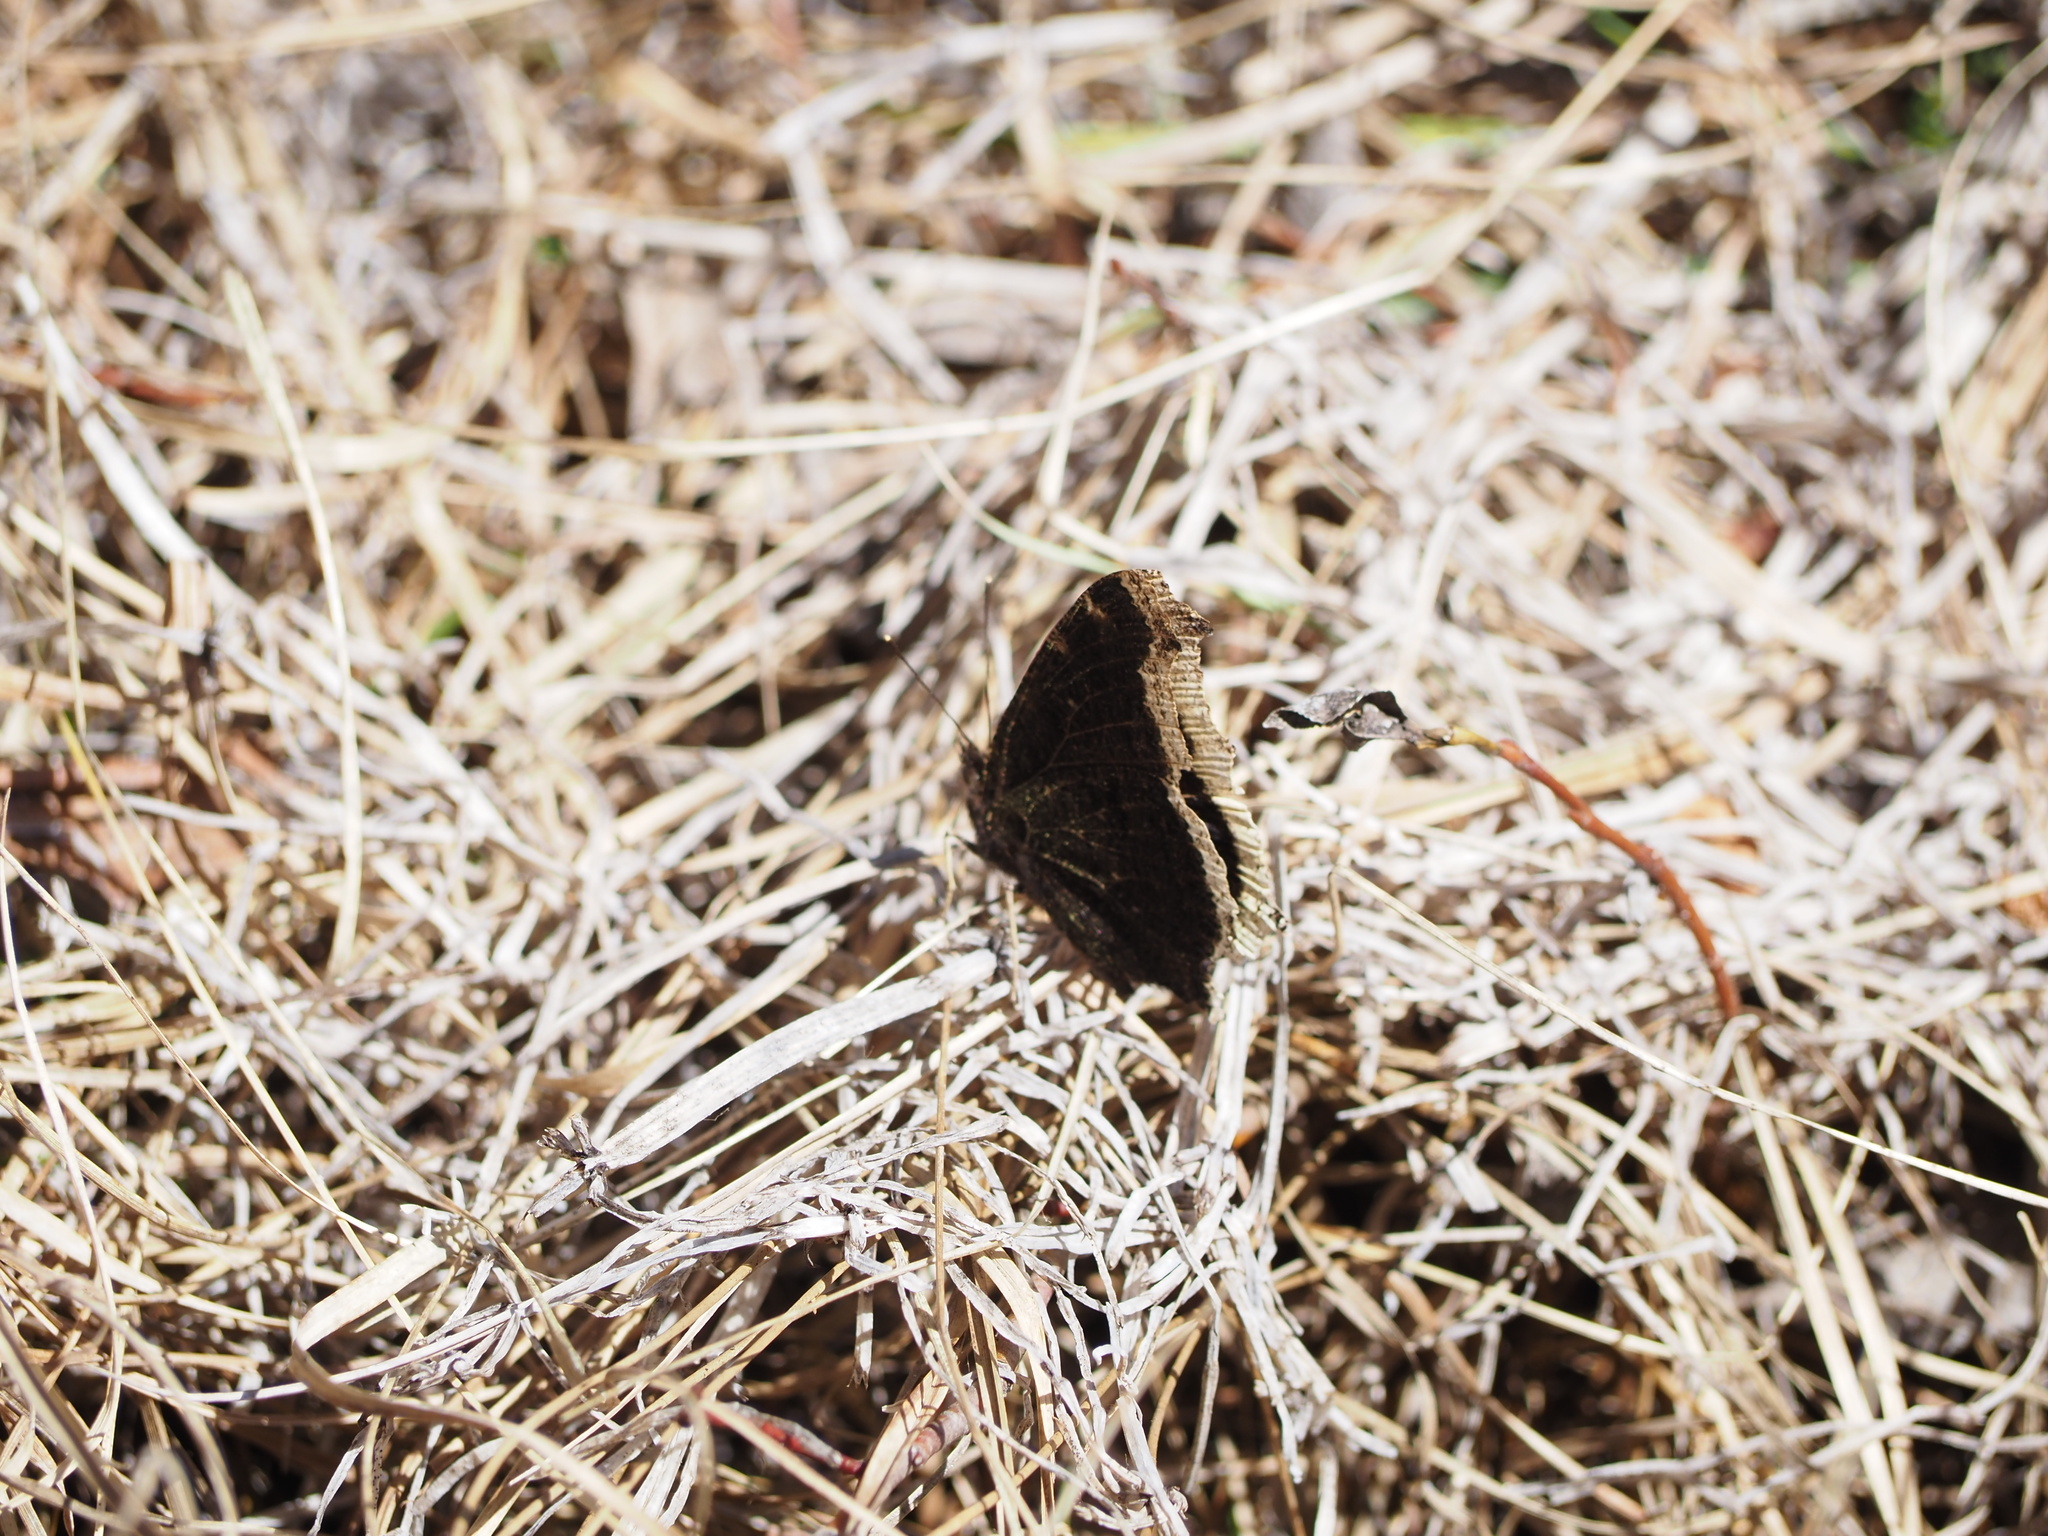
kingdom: Animalia
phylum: Arthropoda
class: Insecta
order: Lepidoptera
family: Nymphalidae
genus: Nymphalis
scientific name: Nymphalis antiopa
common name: Camberwell beauty
